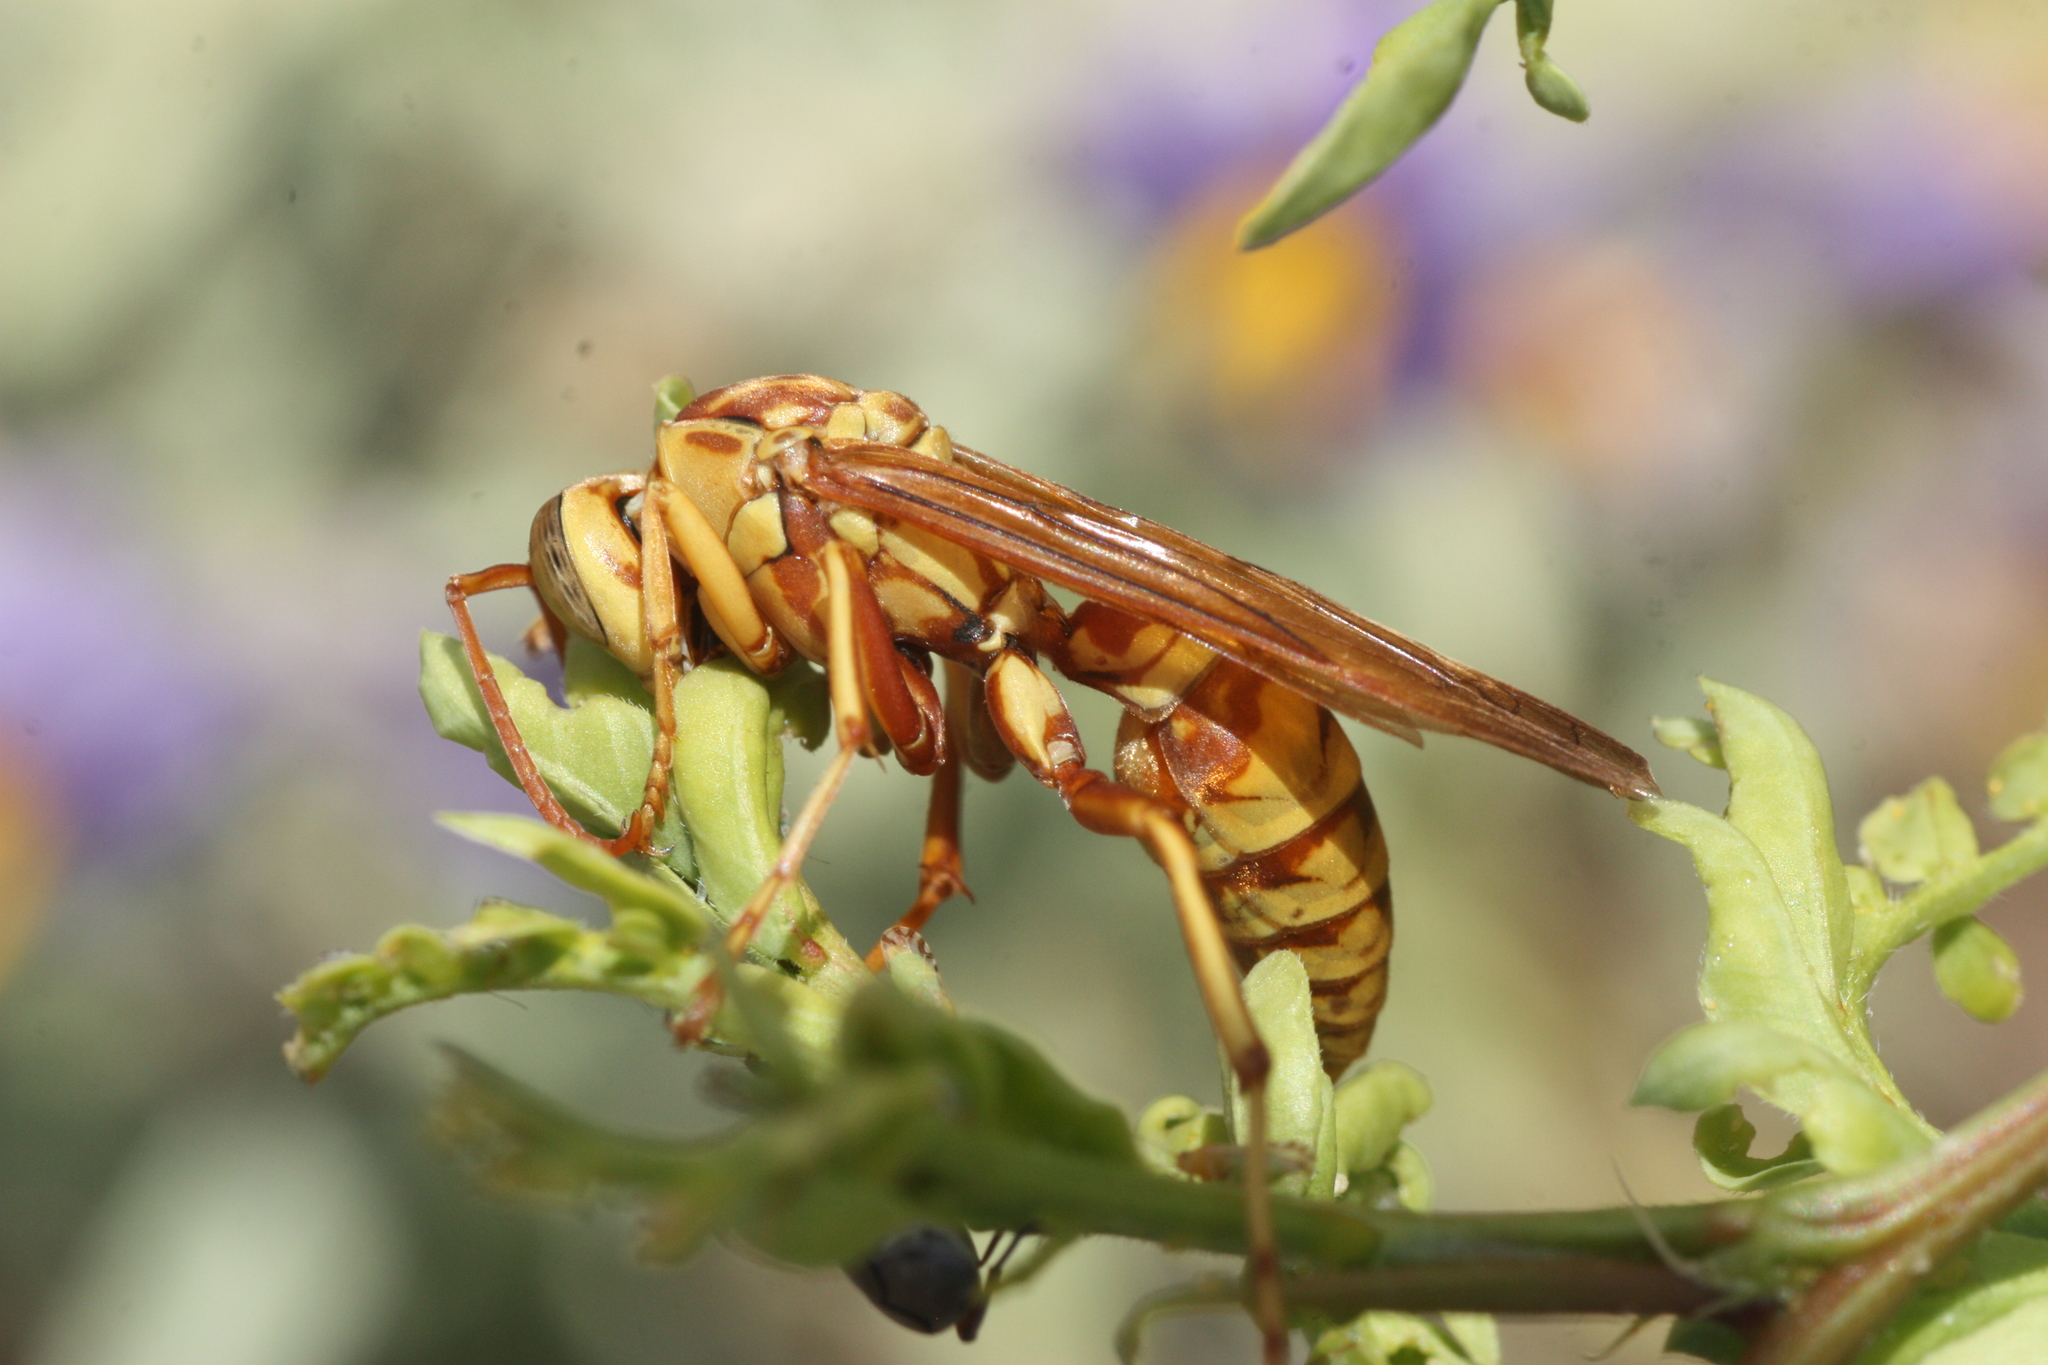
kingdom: Animalia
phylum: Arthropoda
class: Insecta
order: Hymenoptera
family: Eumenidae
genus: Polistes
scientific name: Polistes aurifer
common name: Paper wasp
